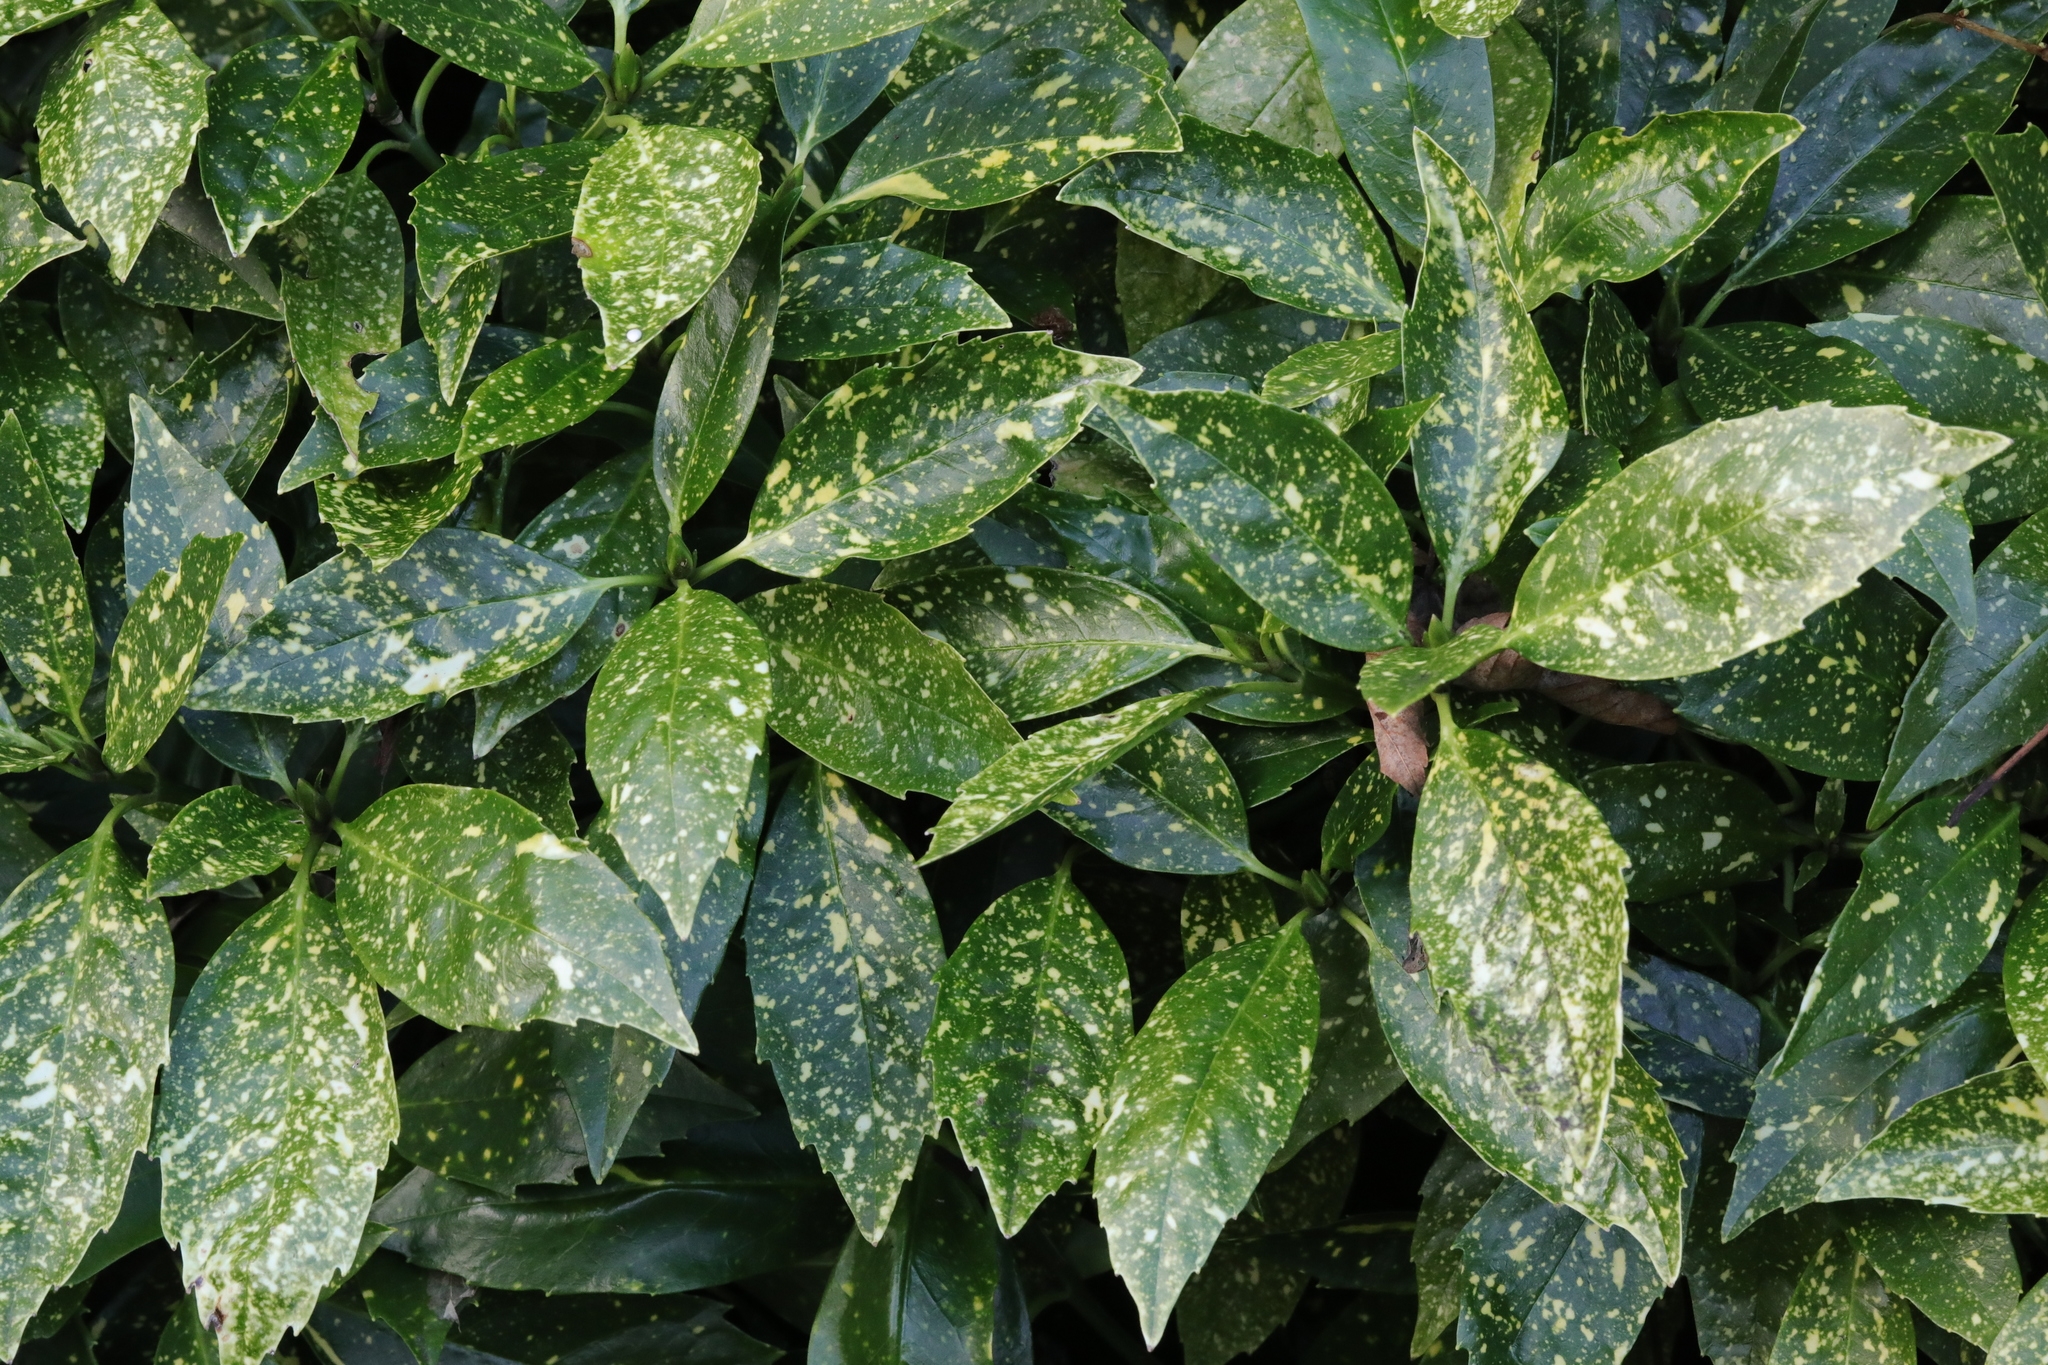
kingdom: Plantae
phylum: Tracheophyta
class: Magnoliopsida
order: Garryales
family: Garryaceae
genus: Aucuba
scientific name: Aucuba japonica
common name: Spotted-laurel
